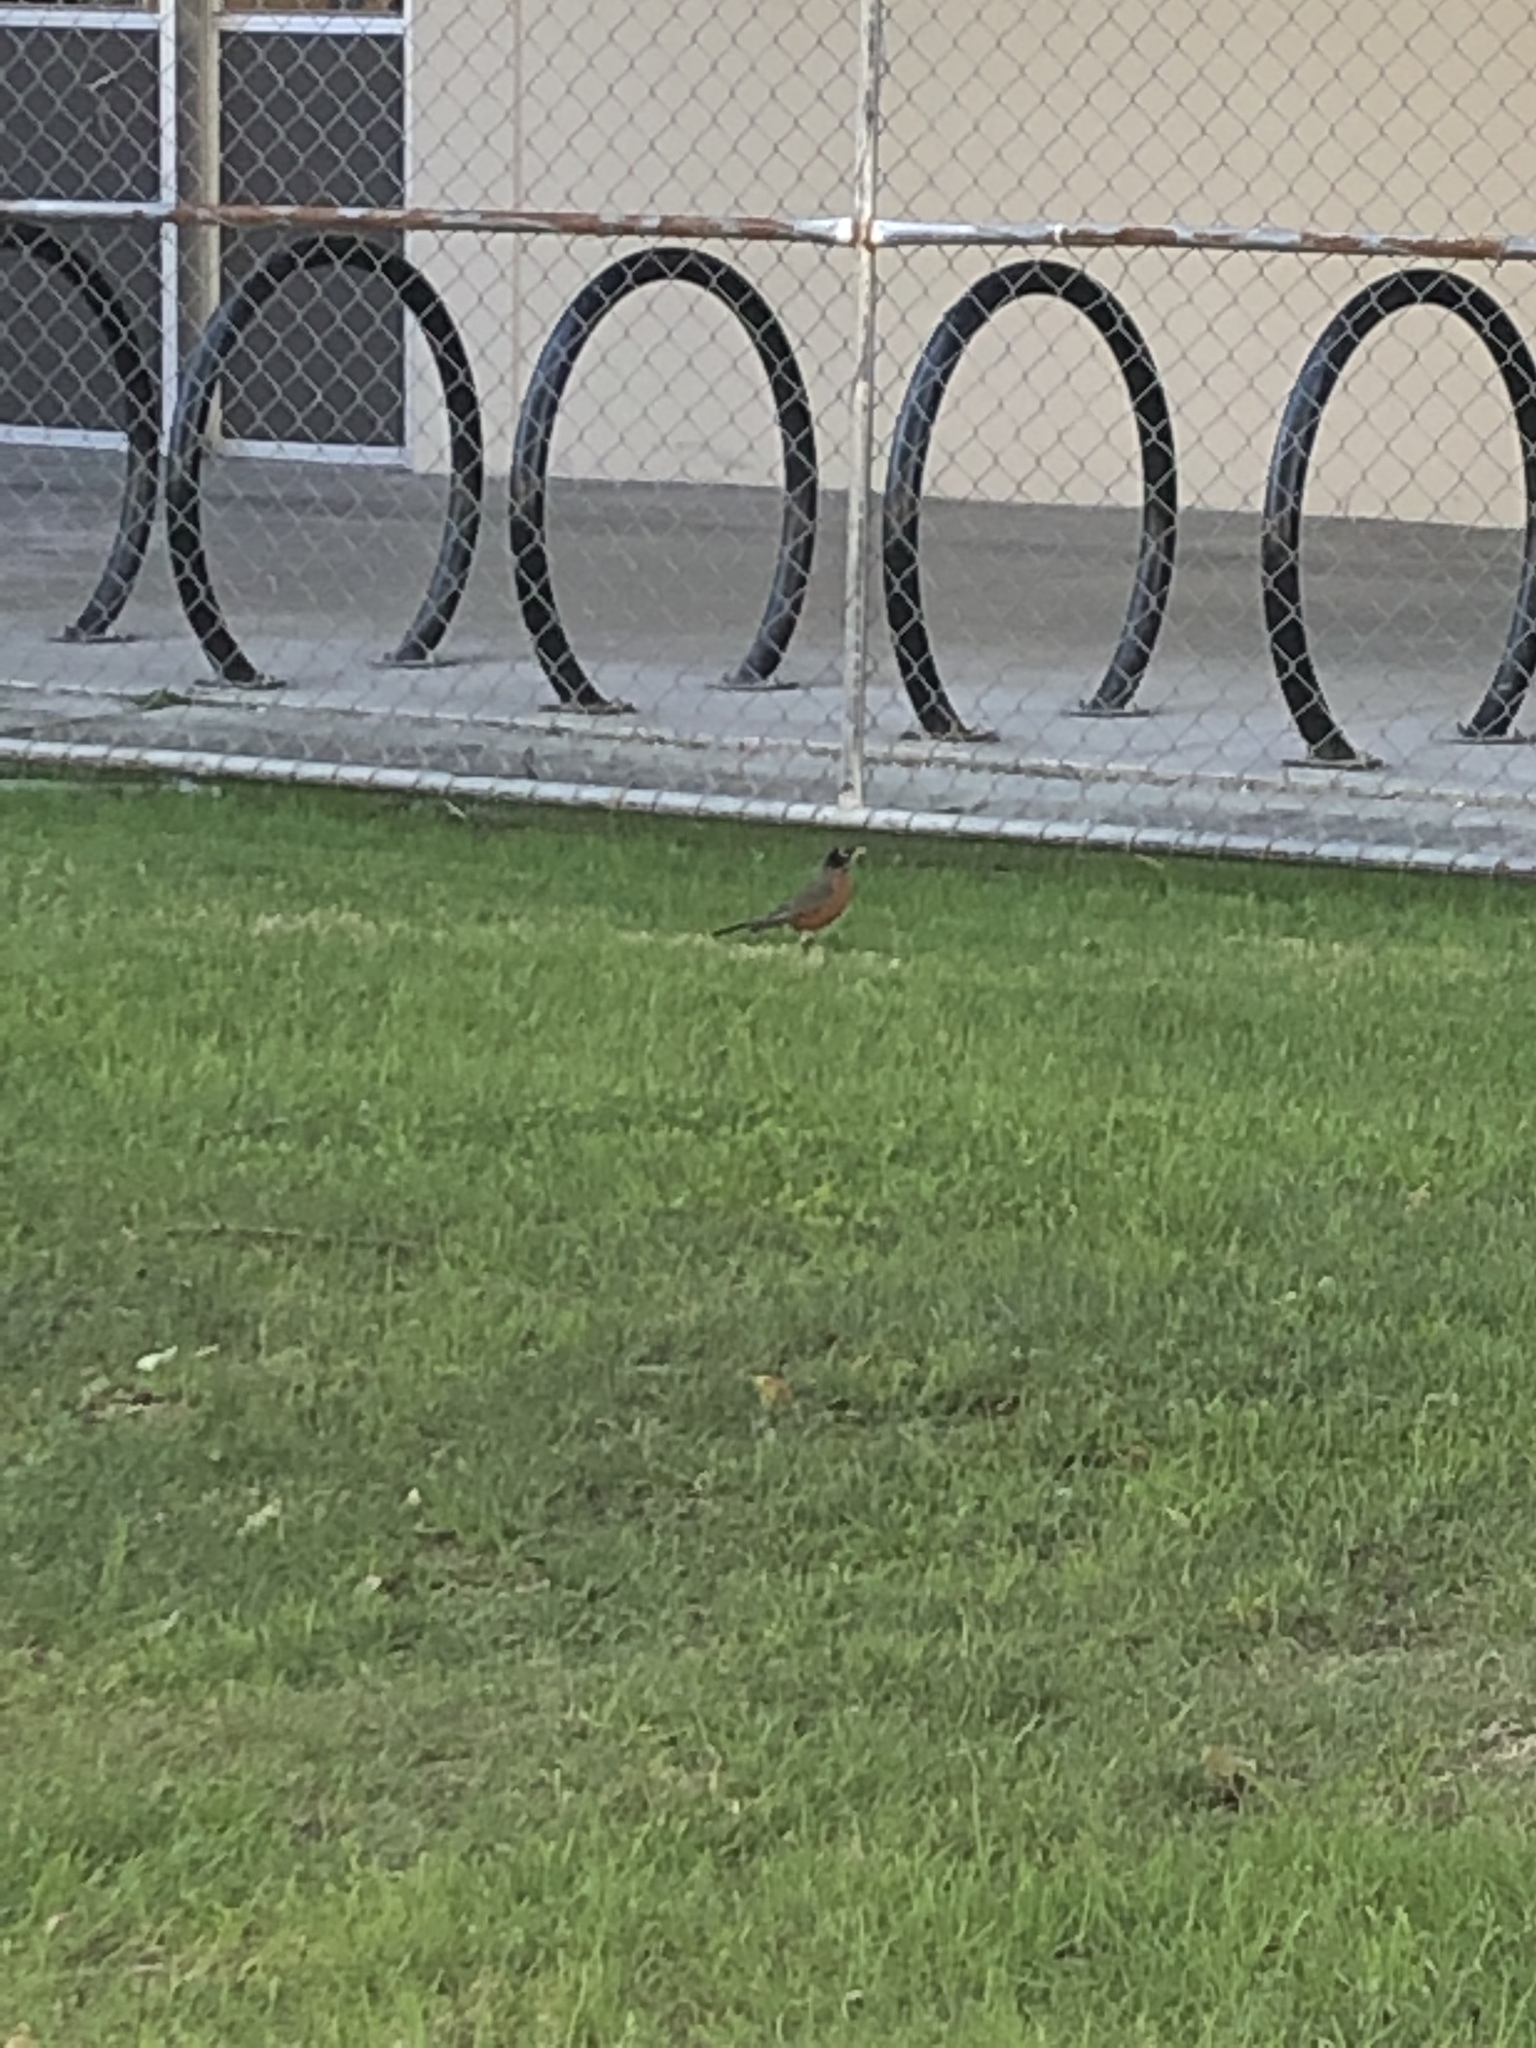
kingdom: Animalia
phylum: Chordata
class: Aves
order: Passeriformes
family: Turdidae
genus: Turdus
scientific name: Turdus migratorius
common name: American robin
